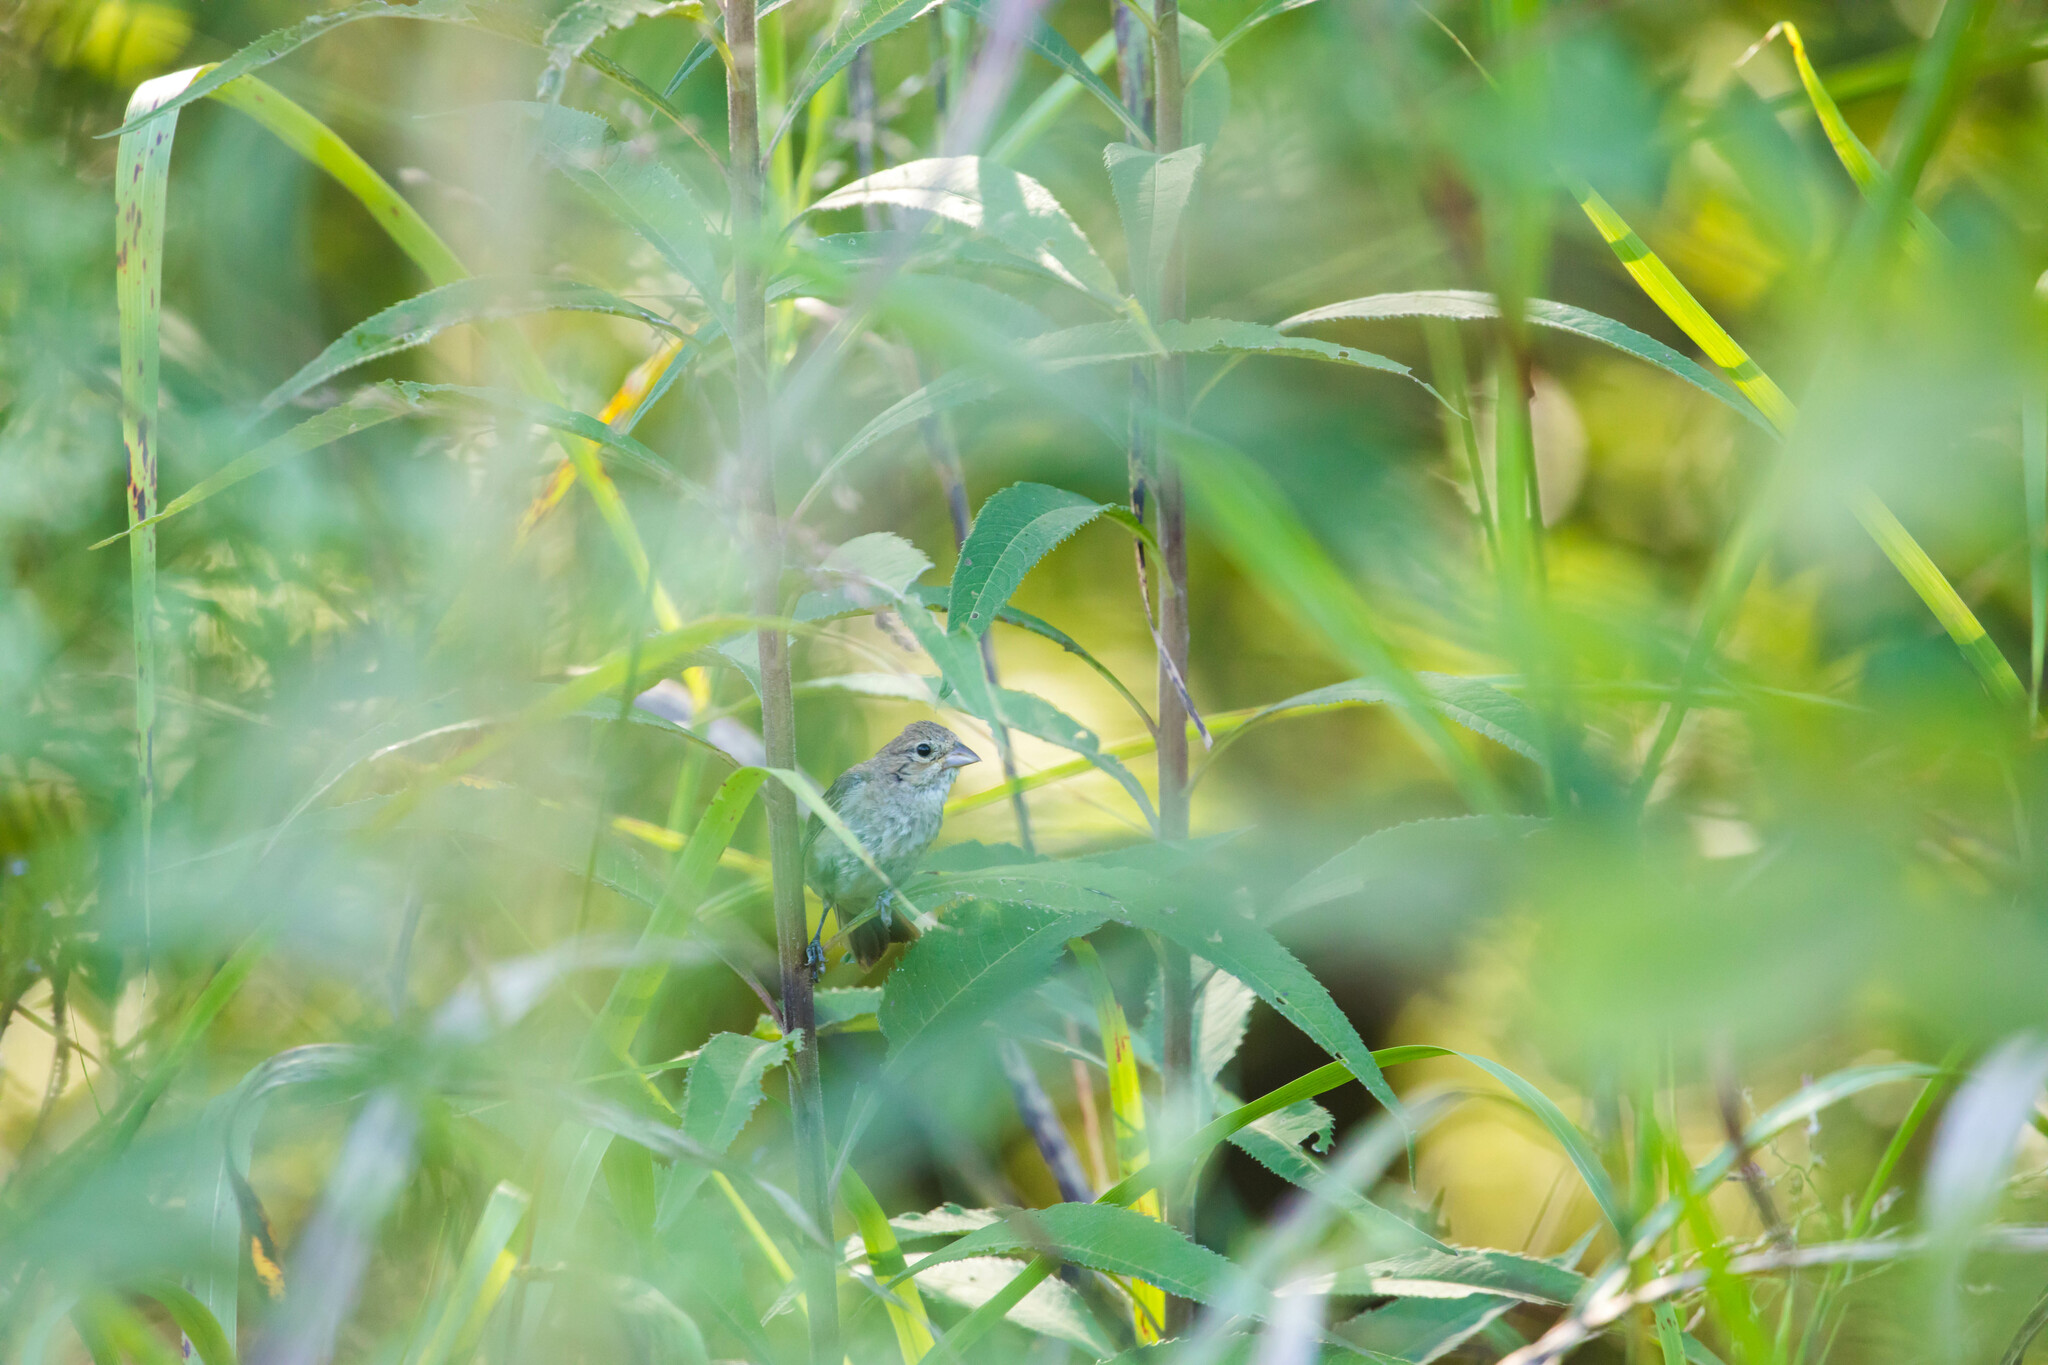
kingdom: Animalia
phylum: Chordata
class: Aves
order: Passeriformes
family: Cardinalidae
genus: Passerina
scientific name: Passerina cyanea
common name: Indigo bunting
